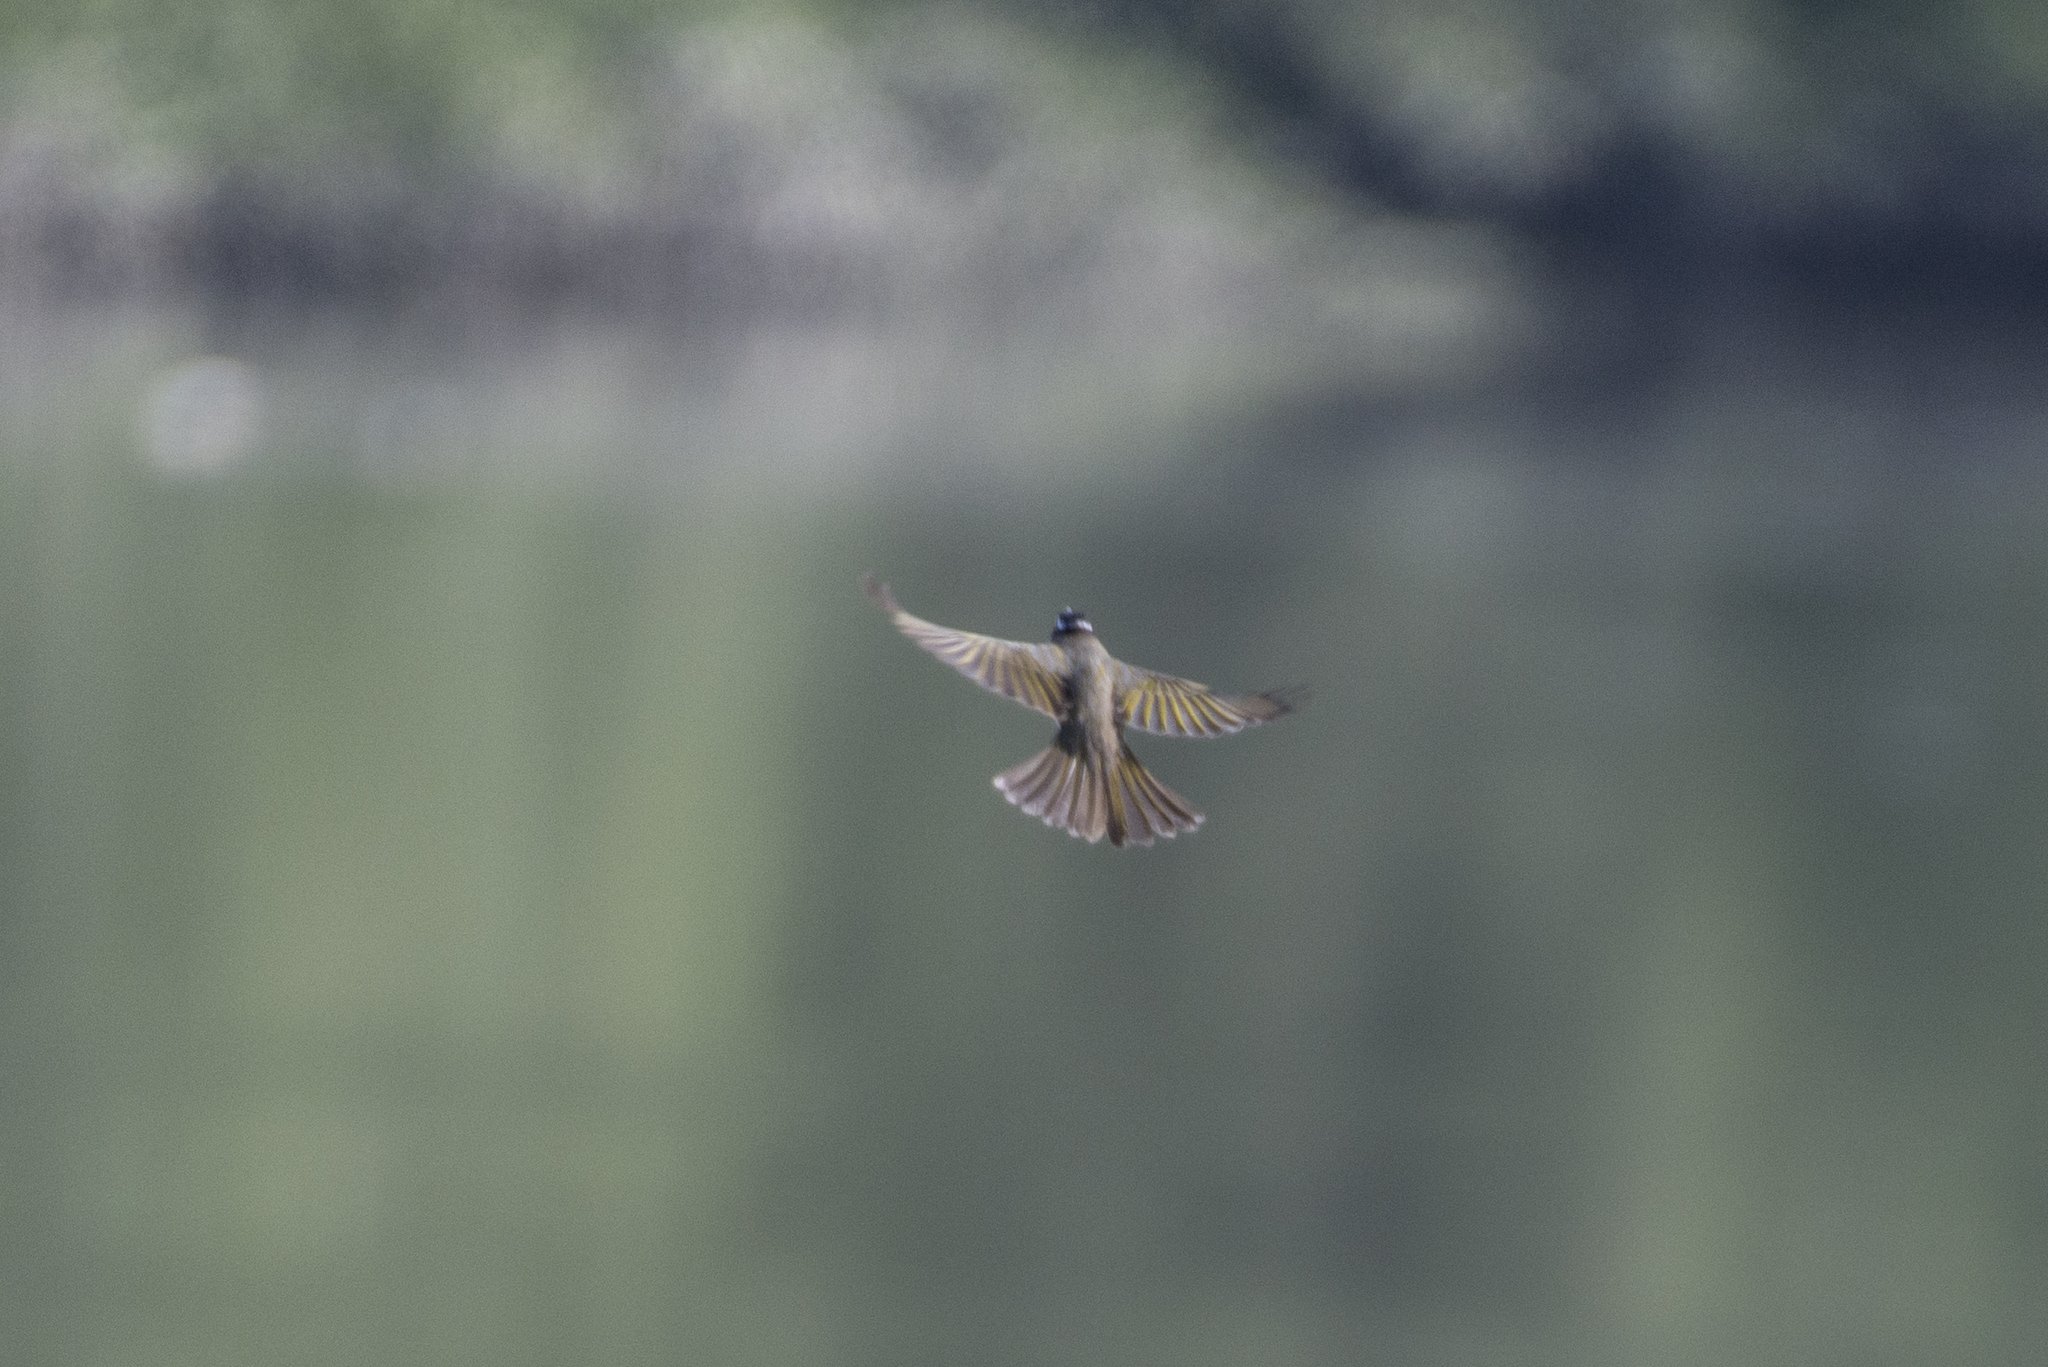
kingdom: Animalia
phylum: Chordata
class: Aves
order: Passeriformes
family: Pycnonotidae
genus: Pycnonotus
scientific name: Pycnonotus sinensis
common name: Light-vented bulbul
